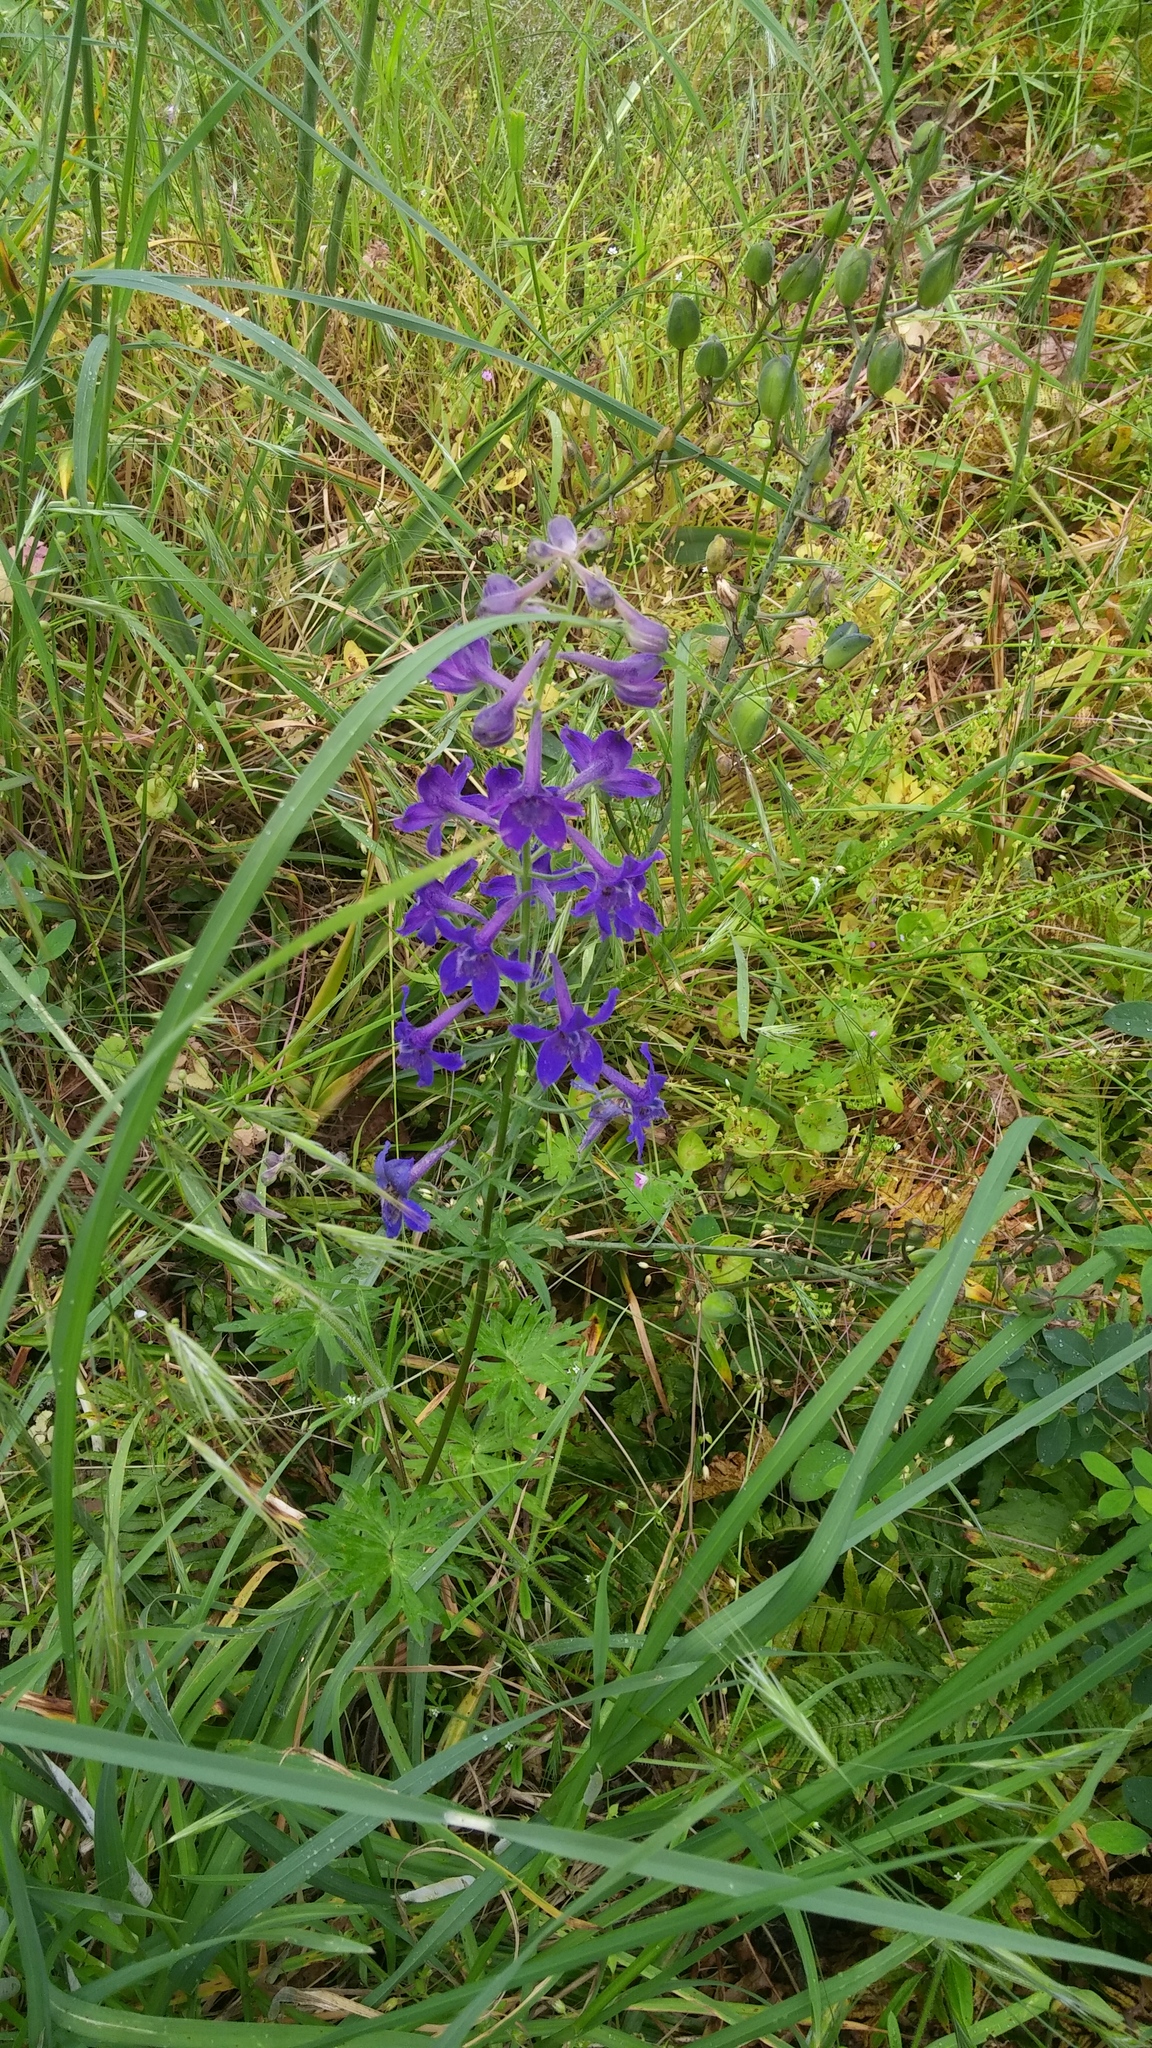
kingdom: Plantae
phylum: Tracheophyta
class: Magnoliopsida
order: Ranunculales
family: Ranunculaceae
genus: Delphinium
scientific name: Delphinium menziesii
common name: Menzies's larkspur
